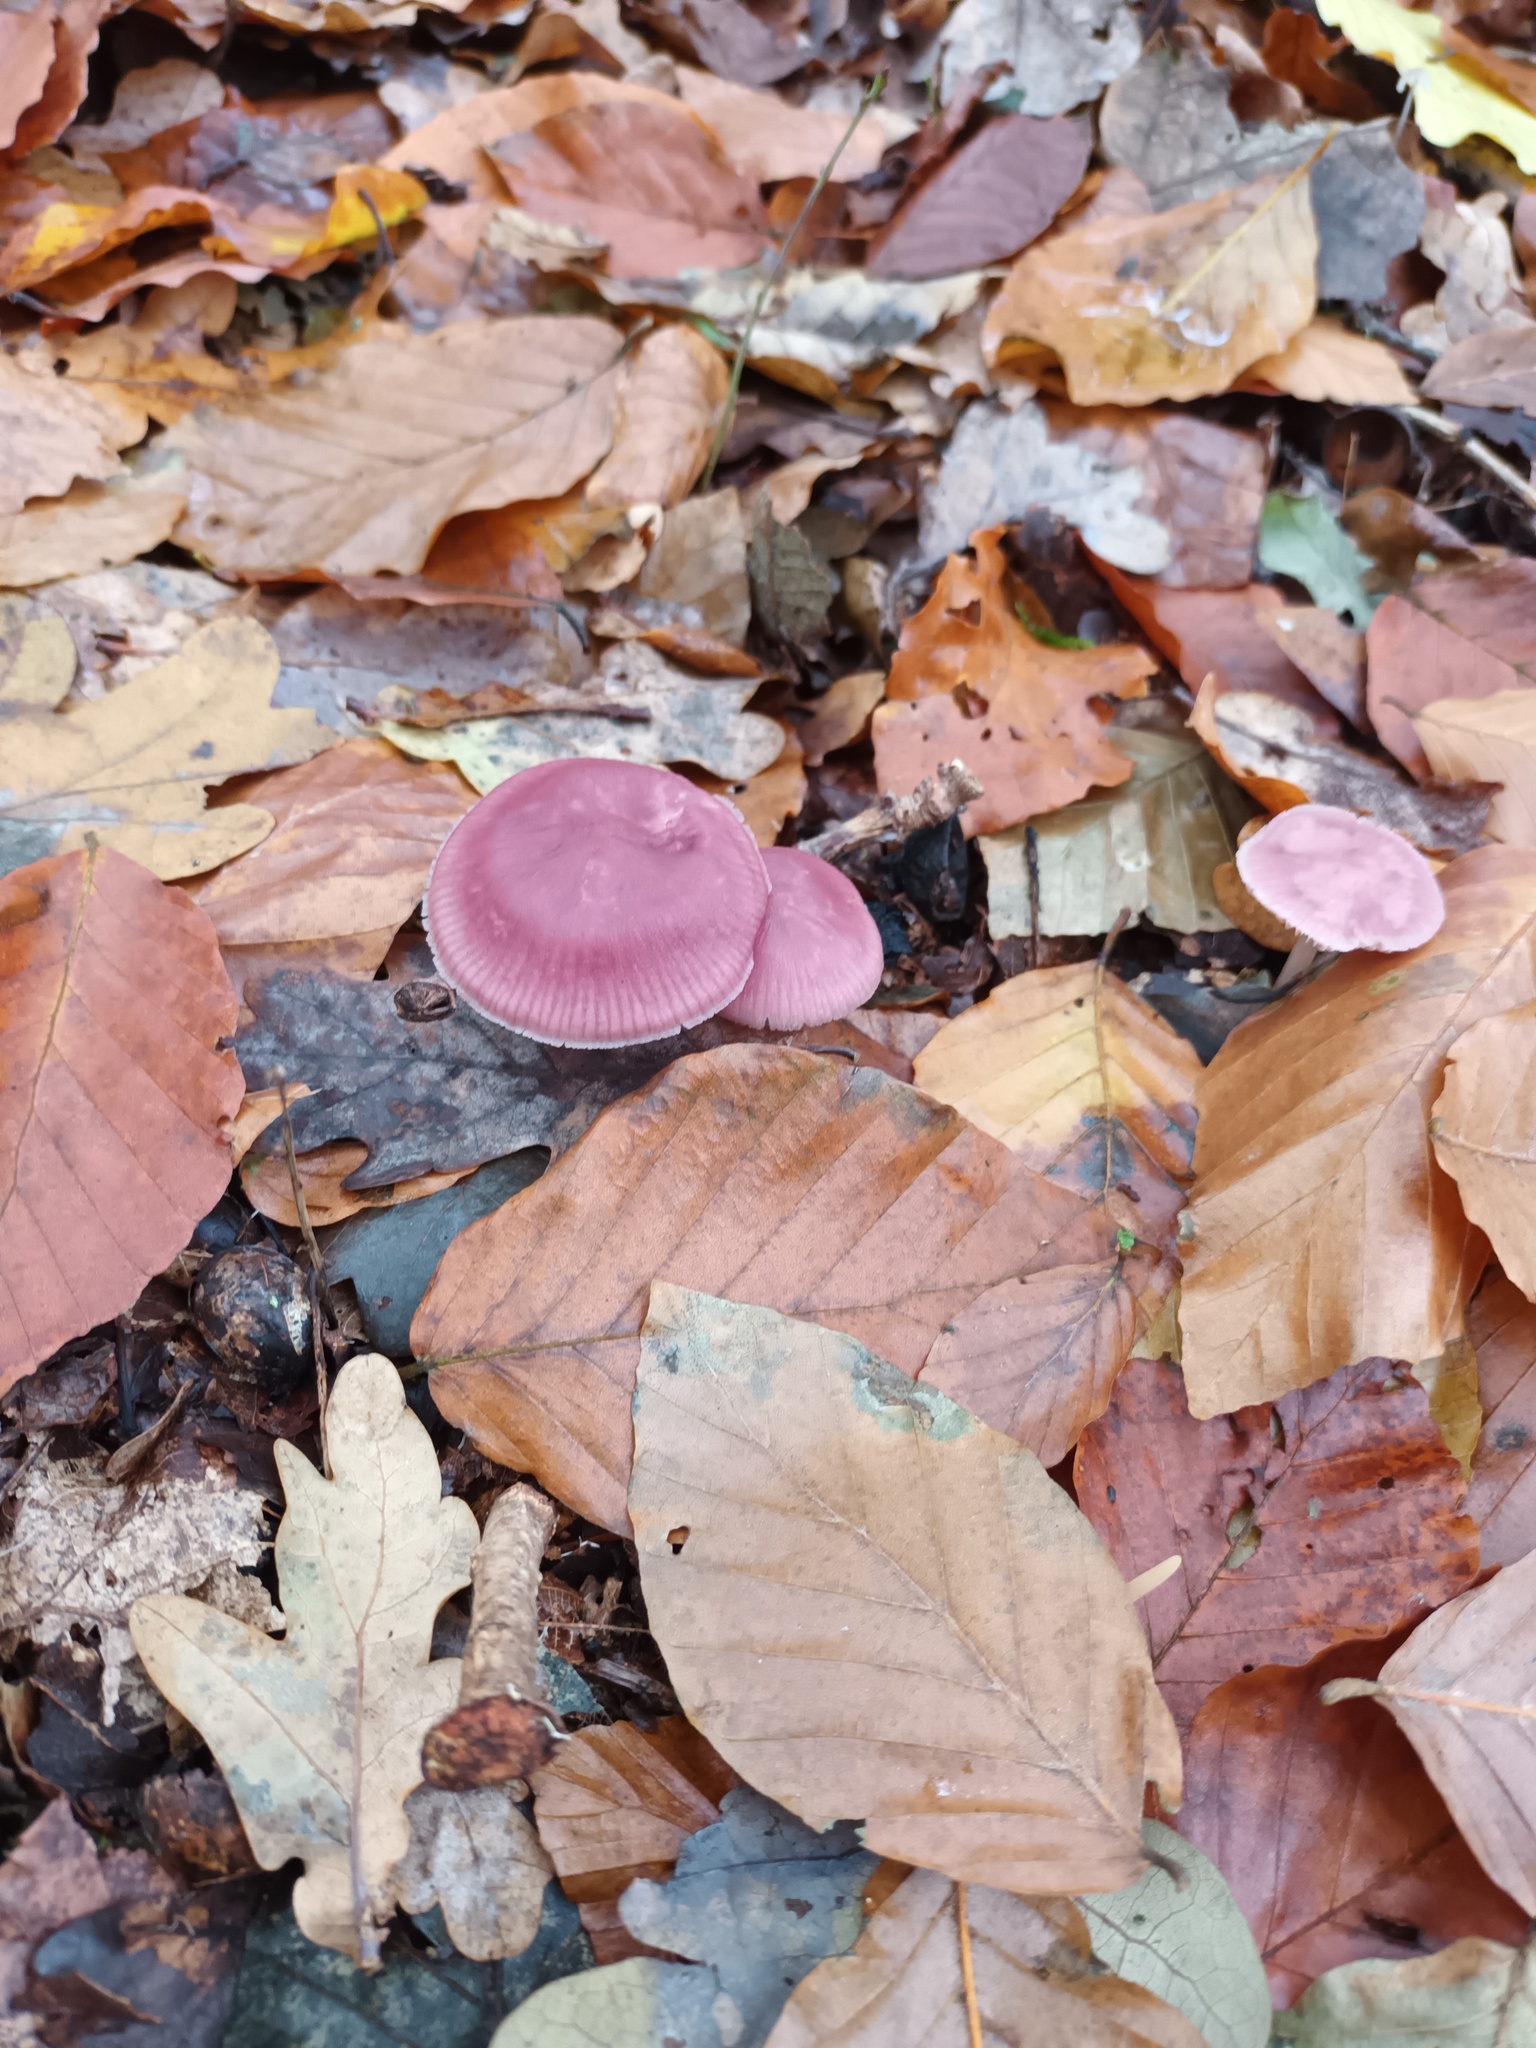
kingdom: Fungi
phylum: Basidiomycota
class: Agaricomycetes
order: Agaricales
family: Mycenaceae
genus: Mycena
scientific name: Mycena rosea
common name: Rosy bonnet
